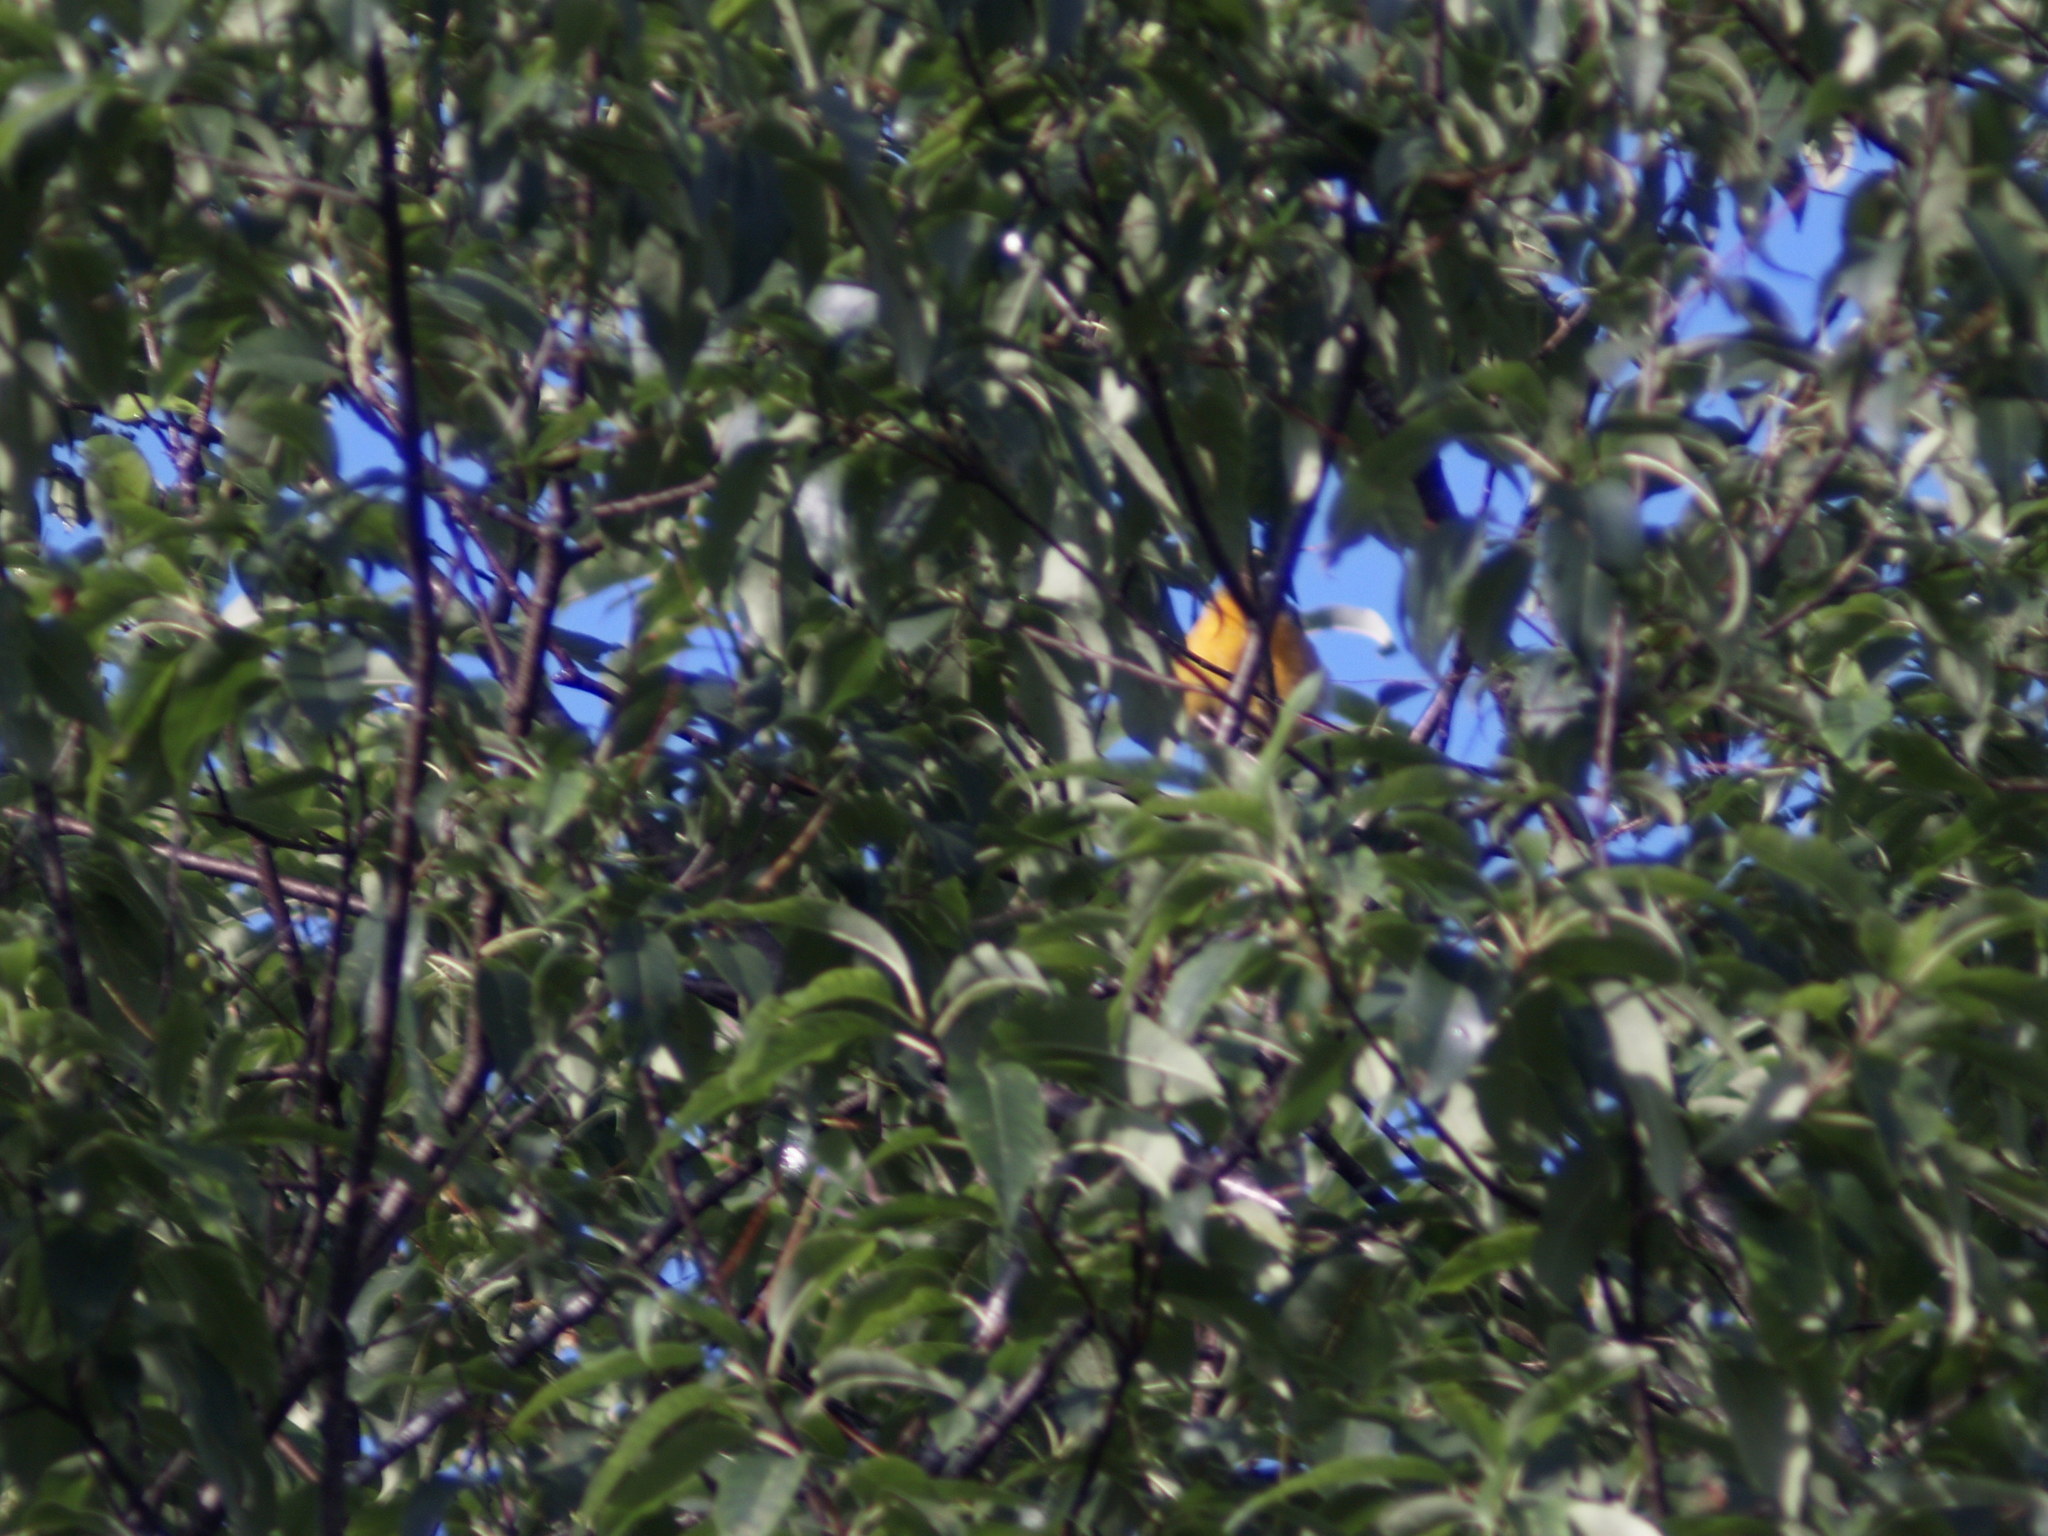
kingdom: Animalia
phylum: Chordata
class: Aves
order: Passeriformes
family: Turdidae
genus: Turdus
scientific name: Turdus migratorius
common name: American robin
